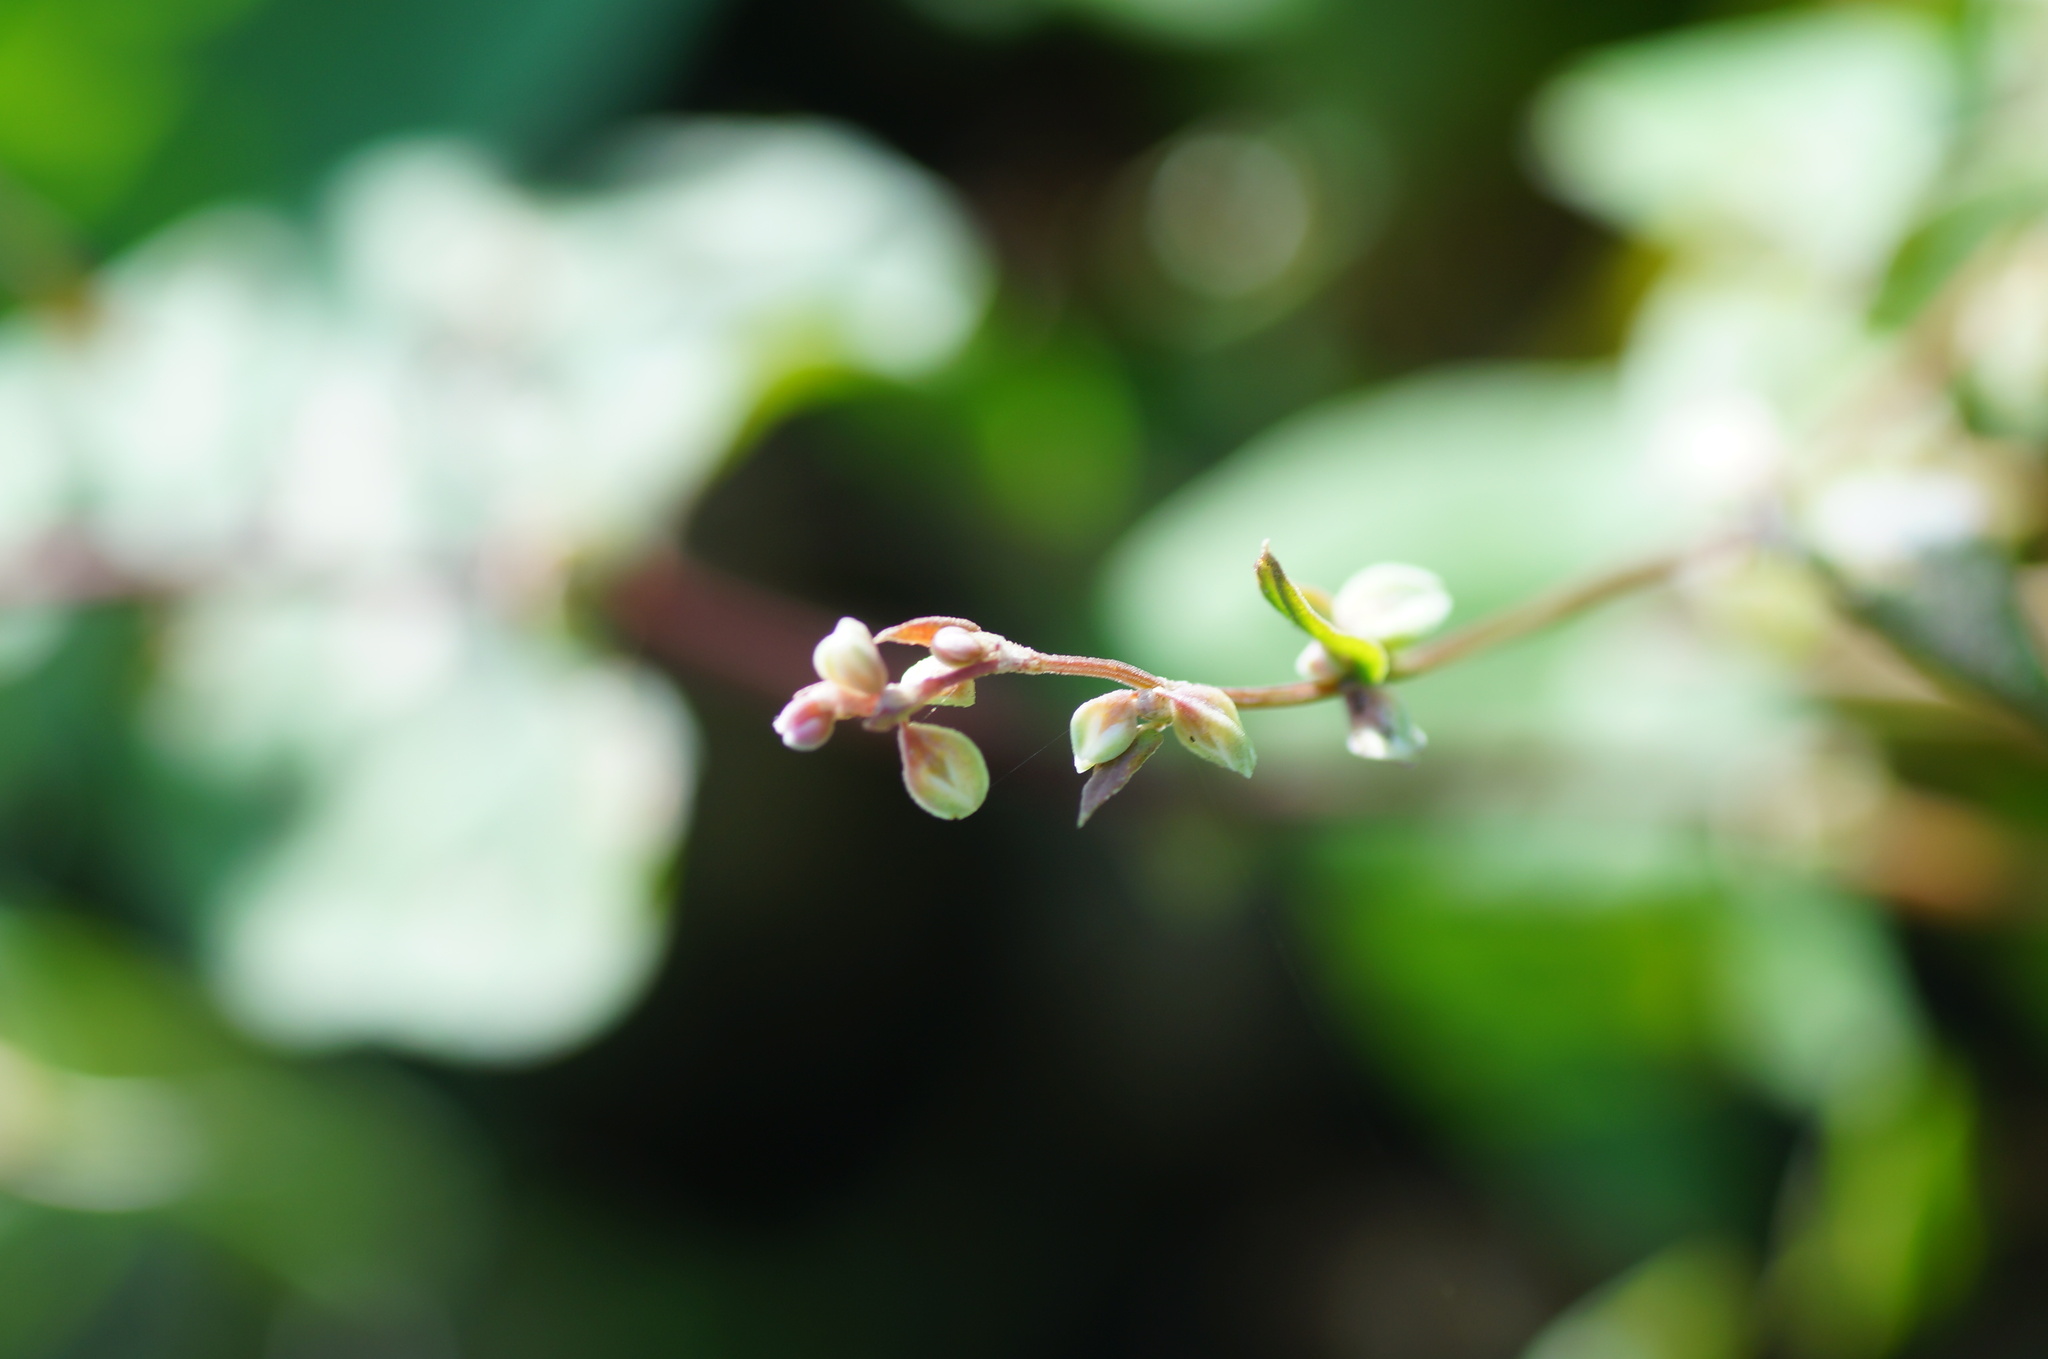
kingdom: Plantae
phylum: Tracheophyta
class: Magnoliopsida
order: Caryophyllales
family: Polygonaceae
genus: Fallopia
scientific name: Fallopia convolvulus
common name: Black bindweed
